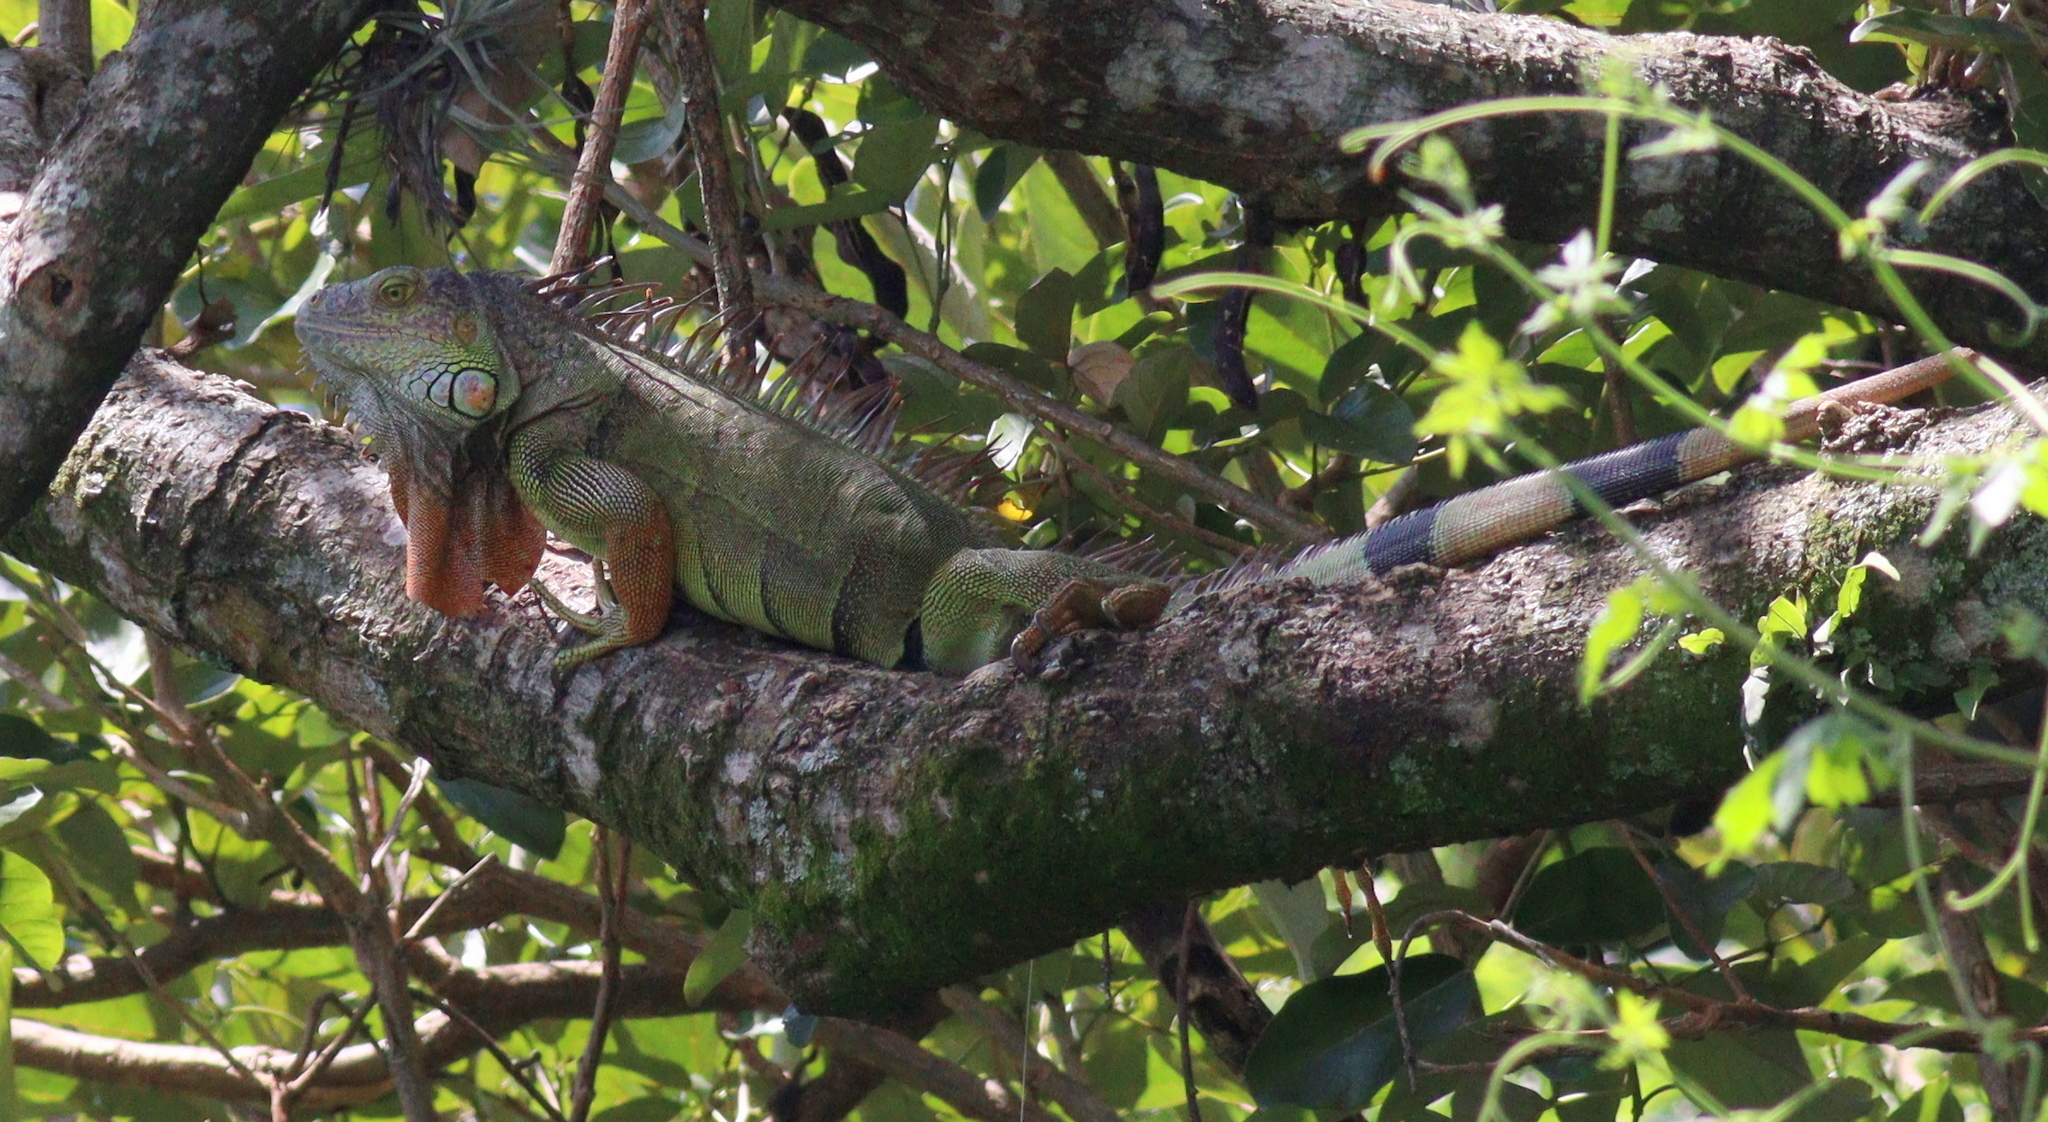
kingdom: Animalia
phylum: Chordata
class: Squamata
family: Iguanidae
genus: Iguana
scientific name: Iguana iguana
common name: Green iguana
